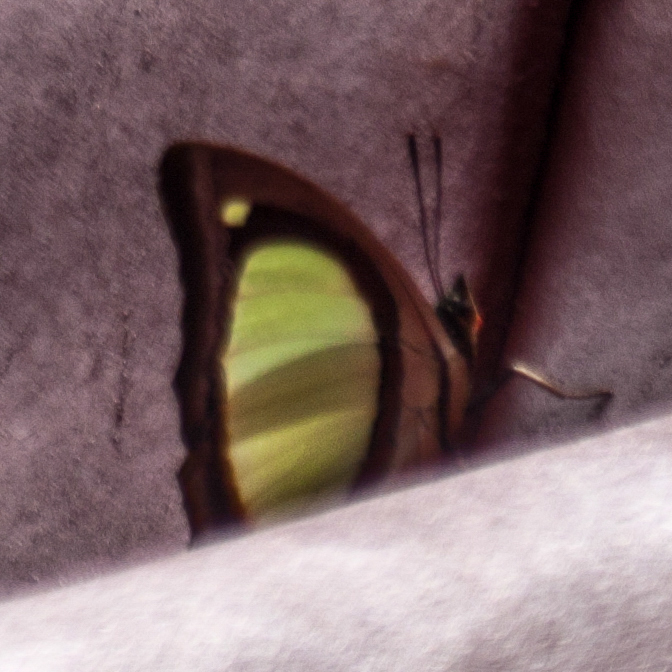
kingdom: Animalia
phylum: Arthropoda
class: Insecta
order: Lepidoptera
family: Nymphalidae
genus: Polyura
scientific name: Polyura jalysus
